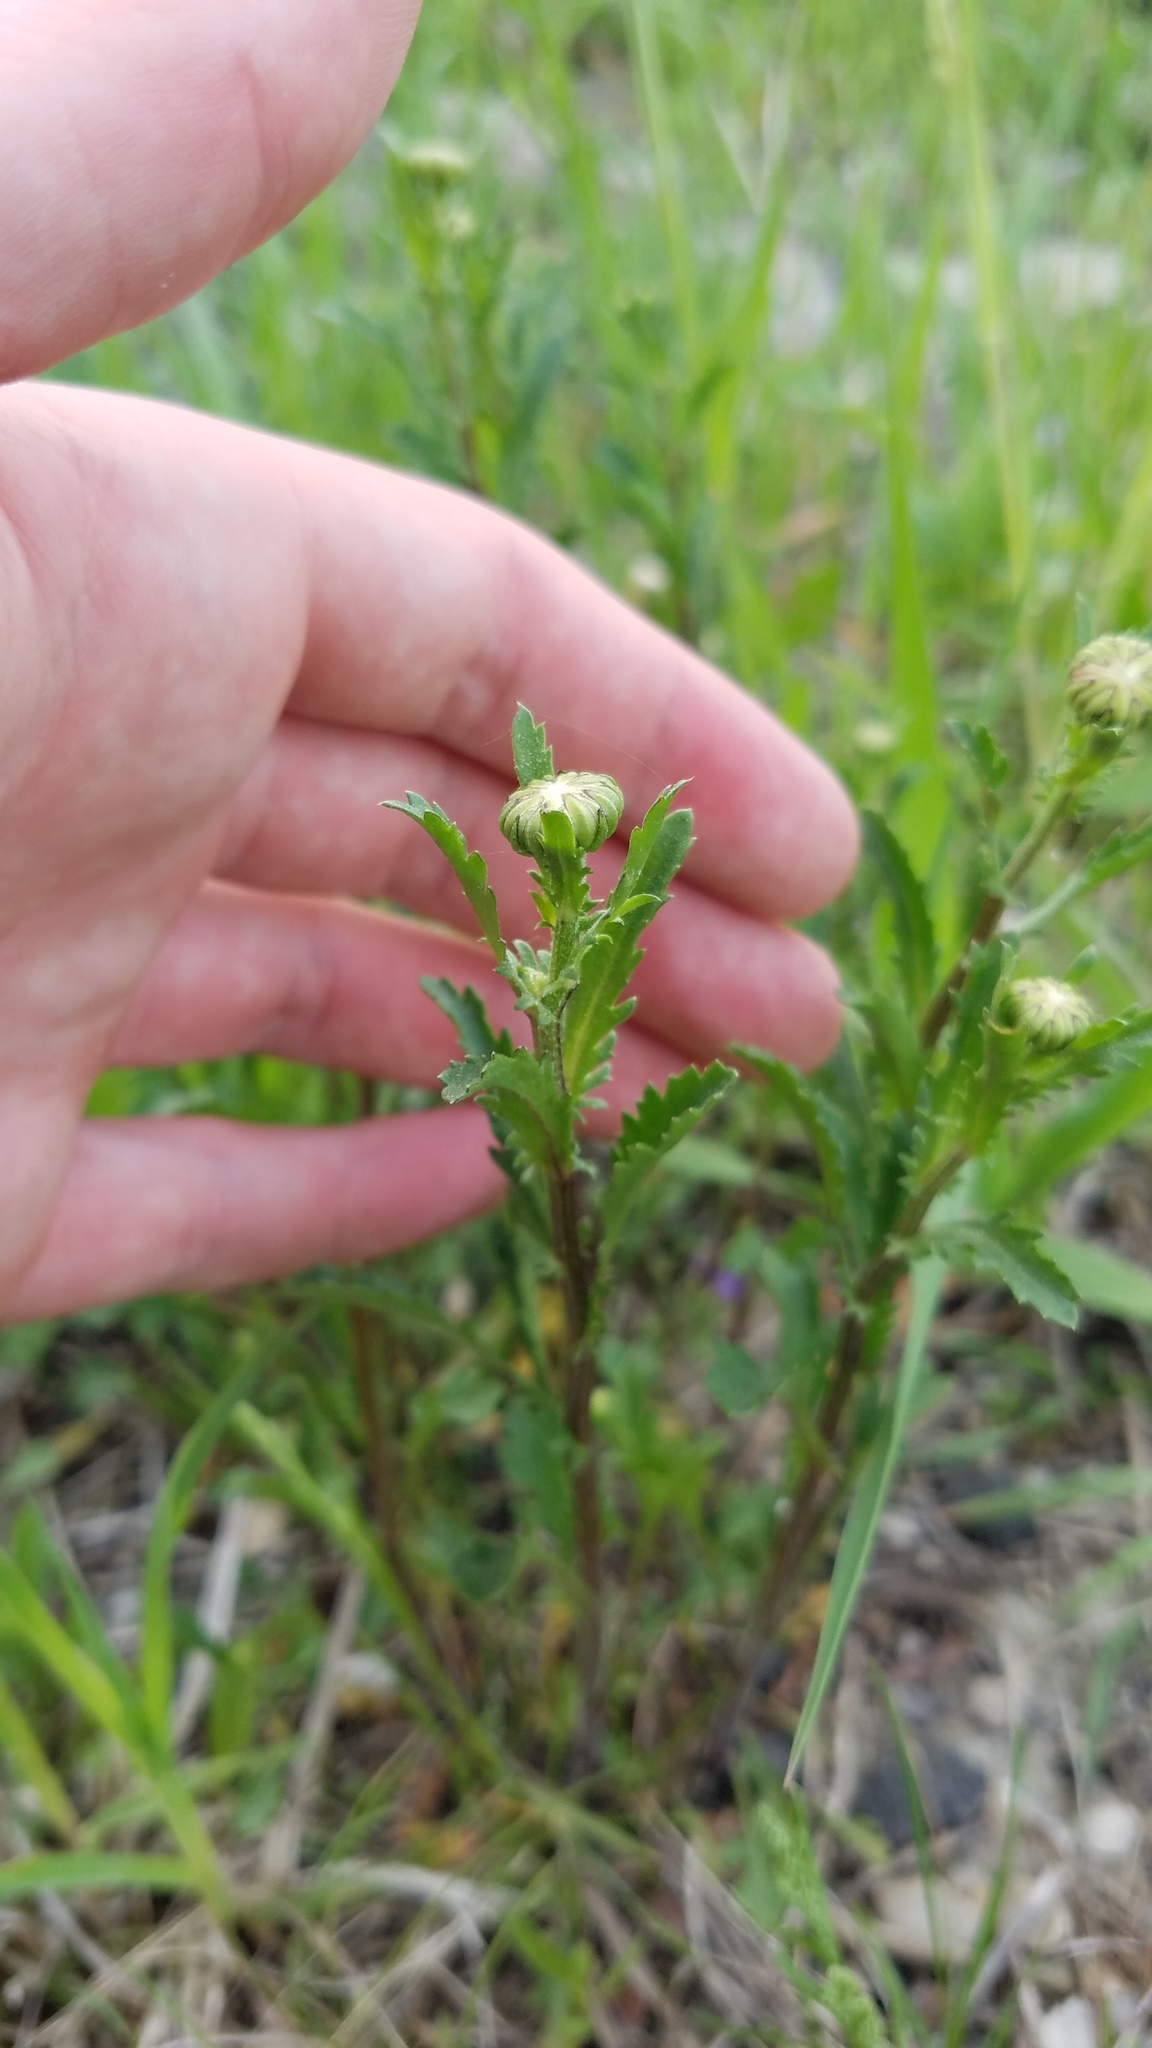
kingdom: Plantae
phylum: Tracheophyta
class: Magnoliopsida
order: Asterales
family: Asteraceae
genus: Leucanthemum
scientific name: Leucanthemum vulgare
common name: Oxeye daisy
